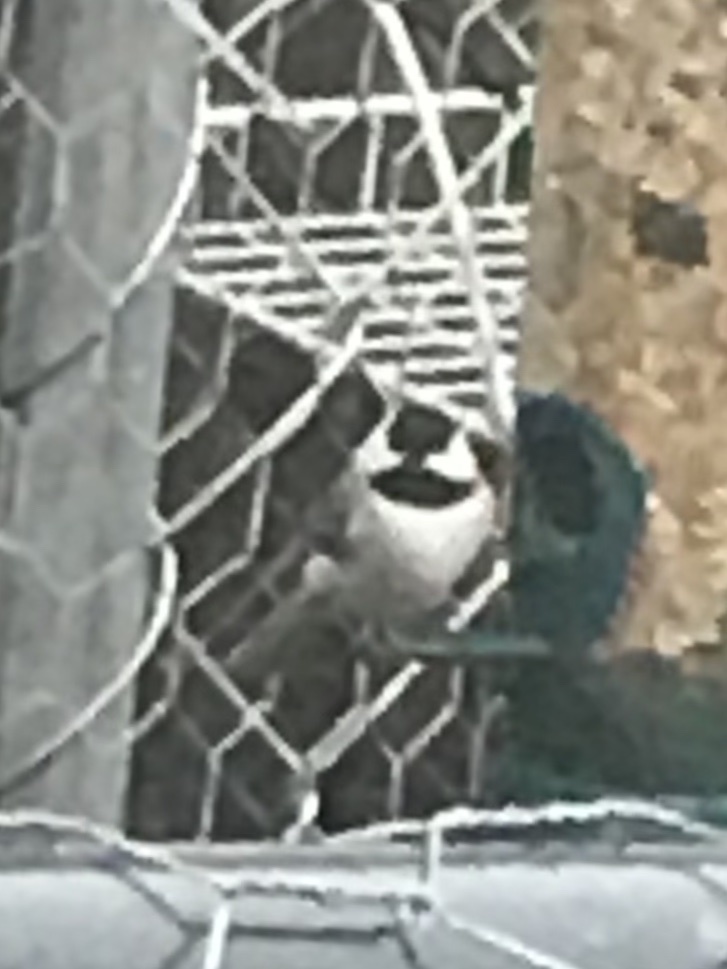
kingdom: Animalia
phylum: Chordata
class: Aves
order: Passeriformes
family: Paridae
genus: Poecile
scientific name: Poecile carolinensis
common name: Carolina chickadee
